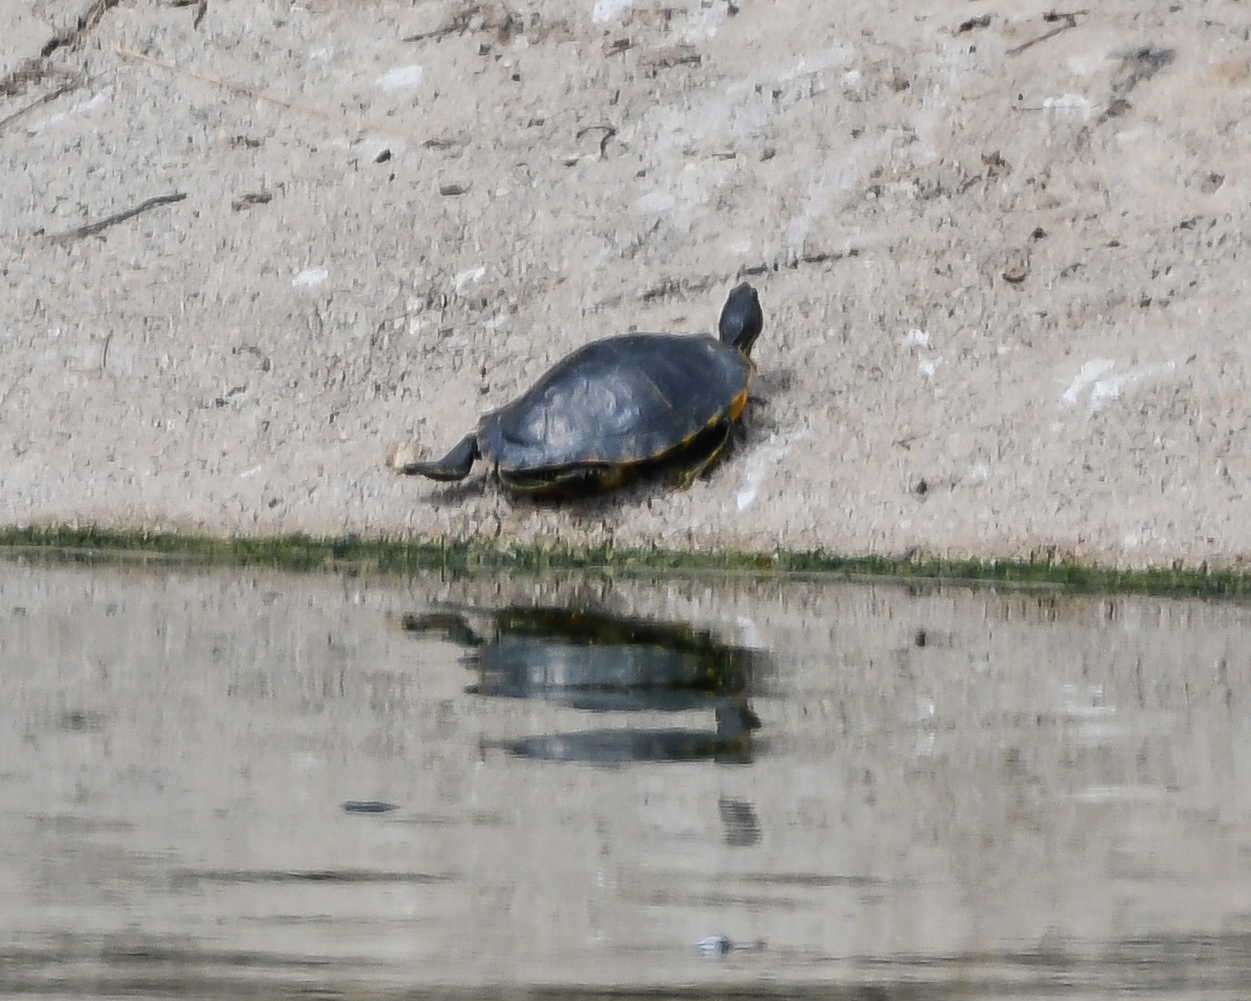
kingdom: Animalia
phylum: Chordata
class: Testudines
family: Emydidae
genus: Trachemys
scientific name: Trachemys scripta
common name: Slider
